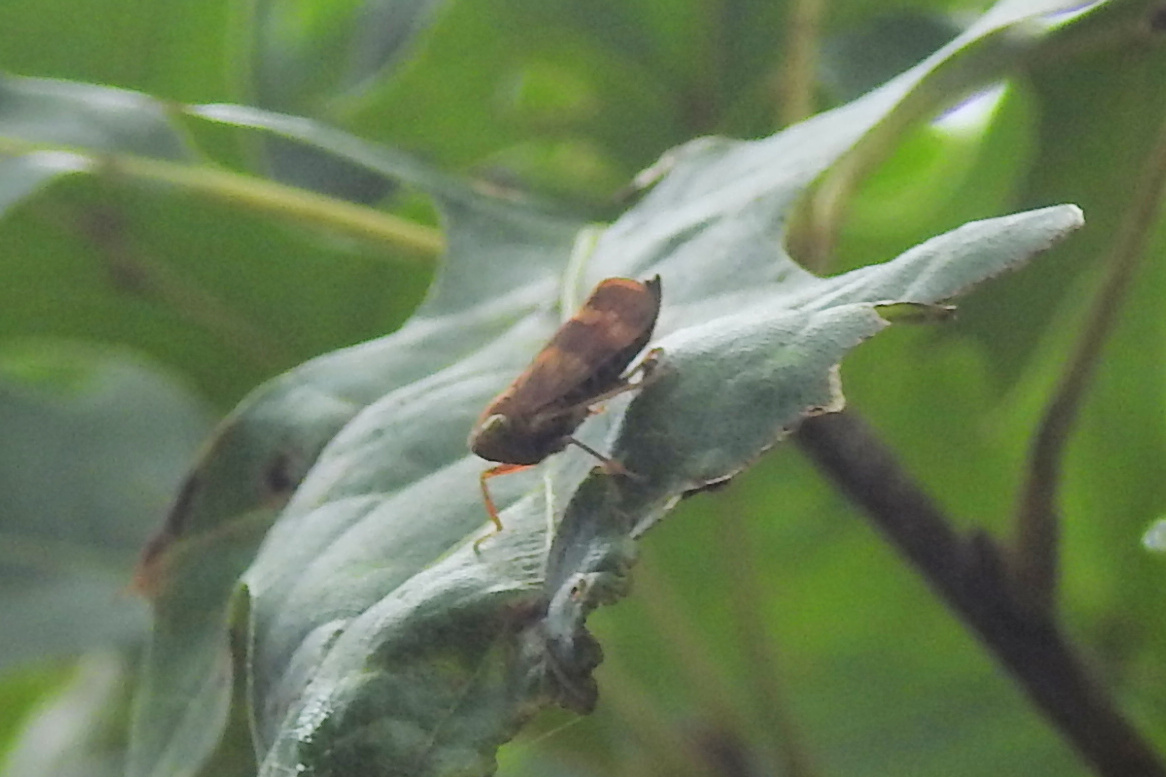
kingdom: Animalia
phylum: Arthropoda
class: Insecta
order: Hemiptera
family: Cicadellidae
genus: Jikradia
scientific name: Jikradia olitoria
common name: Coppery leafhopper
